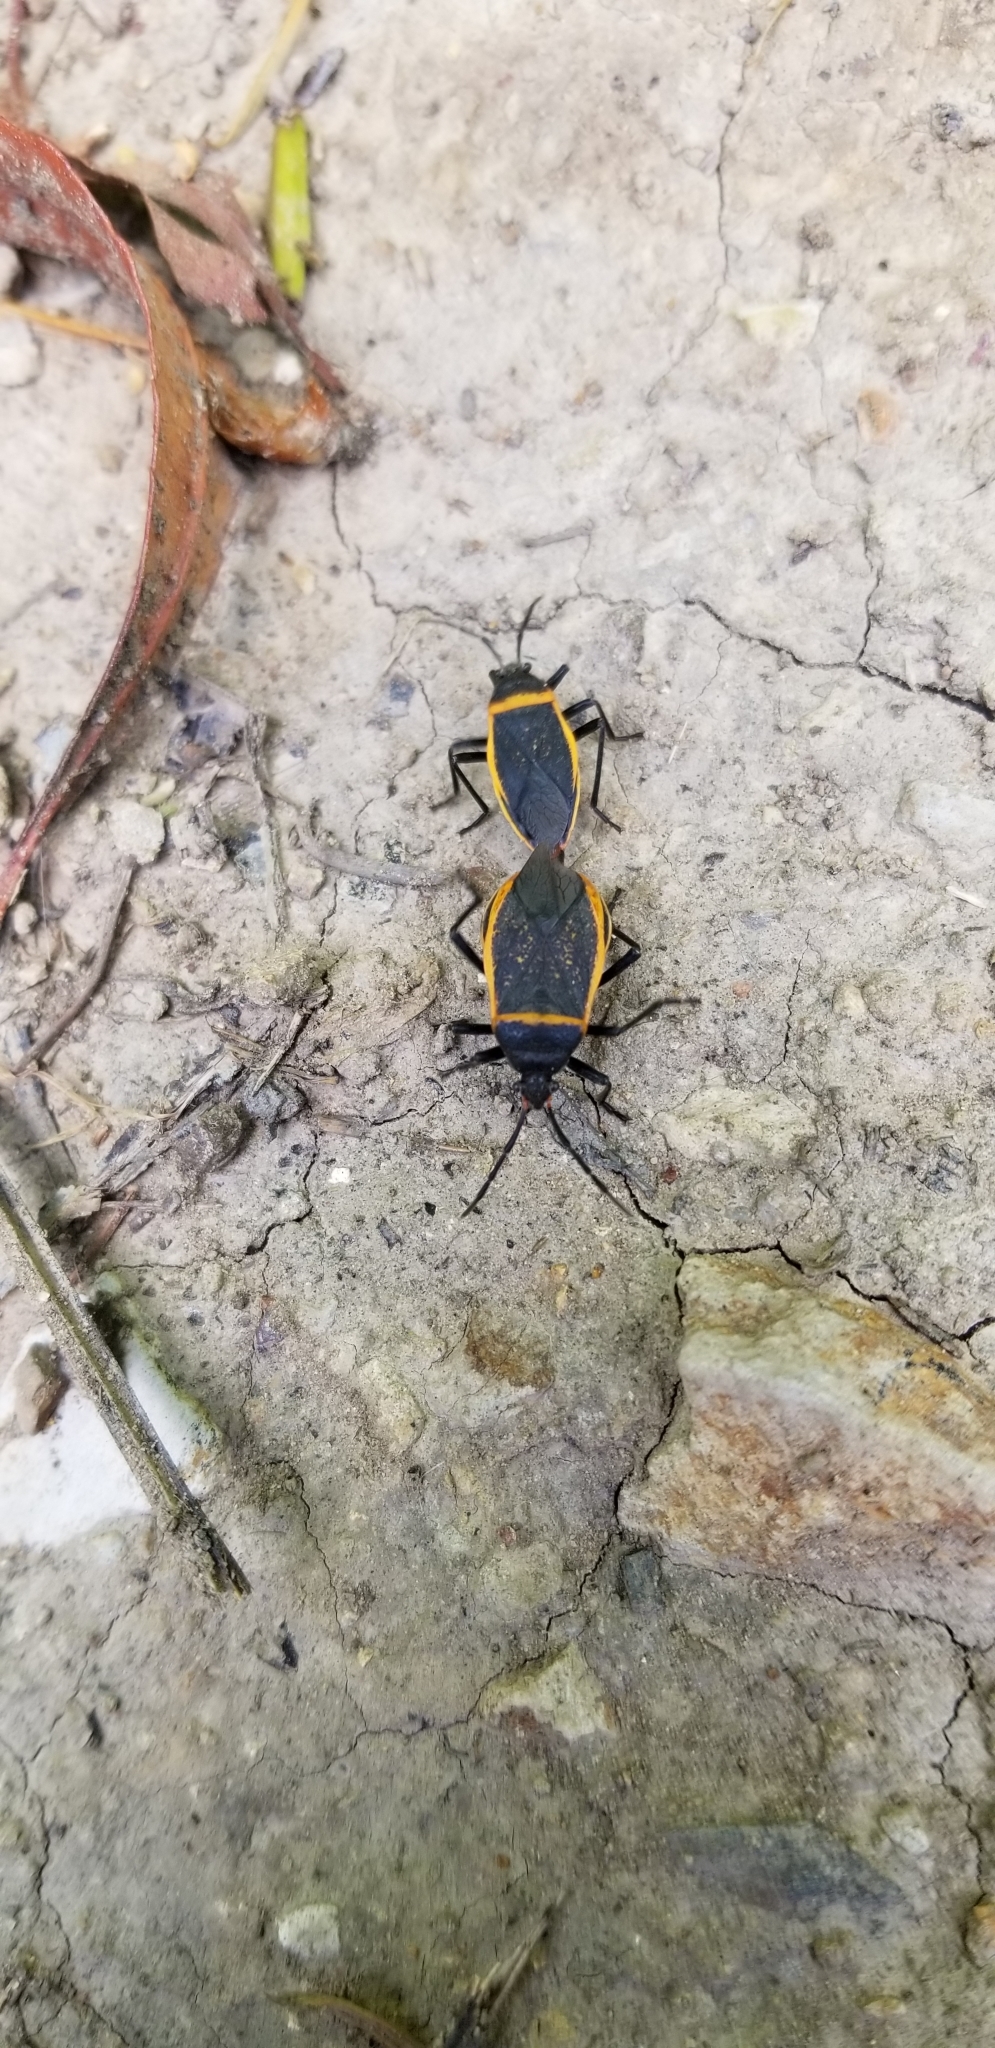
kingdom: Animalia
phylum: Arthropoda
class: Insecta
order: Hemiptera
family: Largidae
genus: Largus
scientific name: Largus californicus
